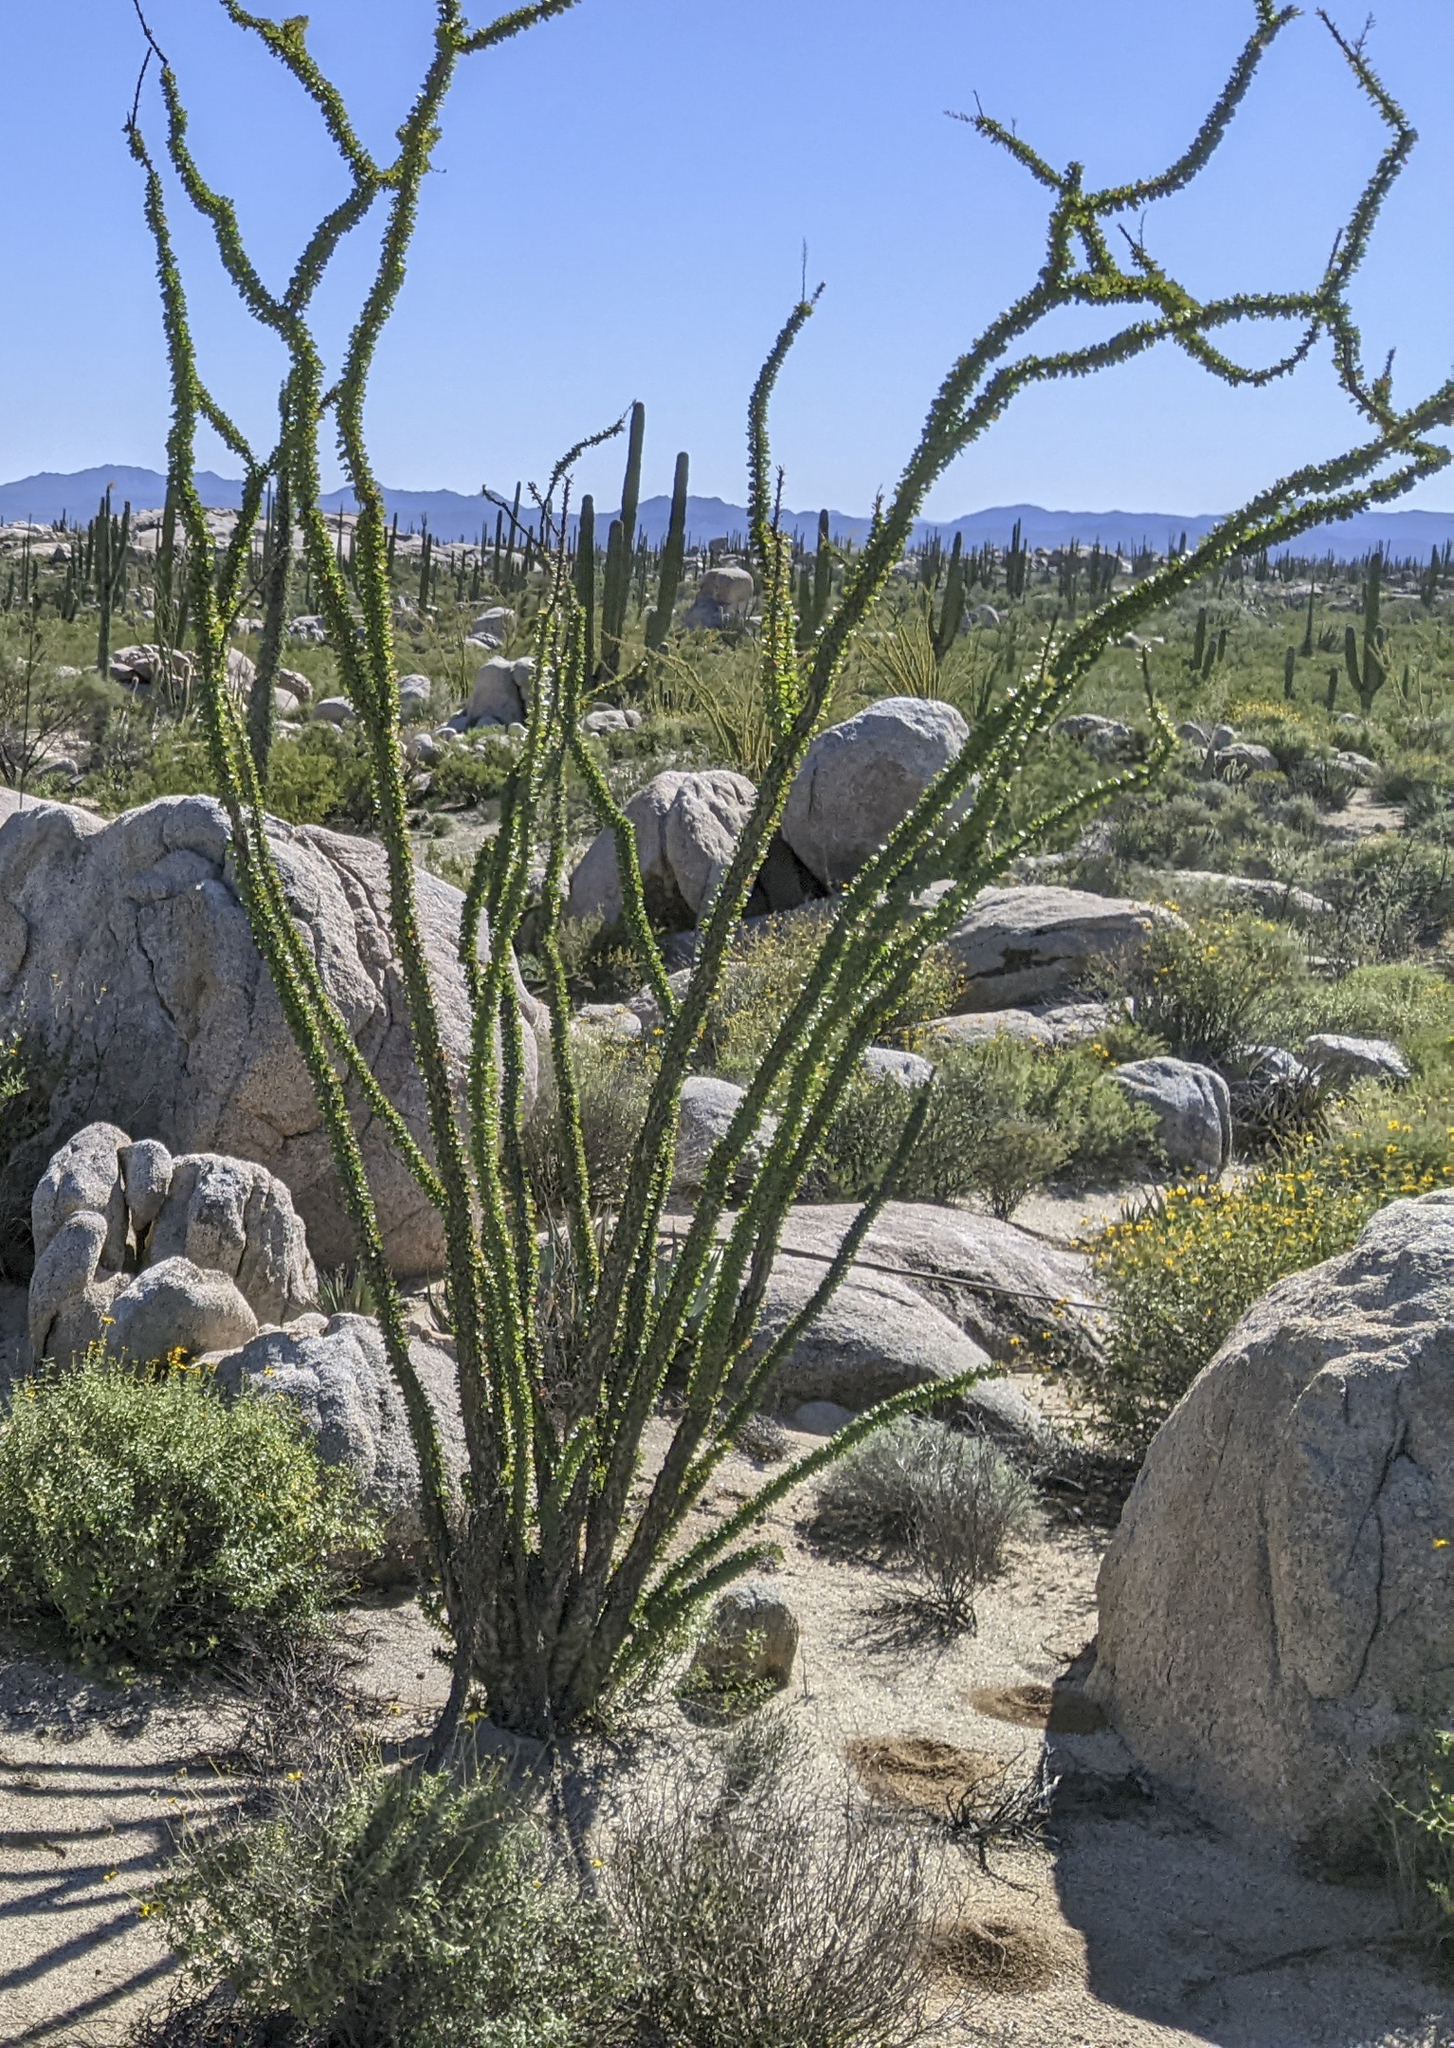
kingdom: Plantae
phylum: Tracheophyta
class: Magnoliopsida
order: Ericales
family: Fouquieriaceae
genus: Fouquieria
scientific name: Fouquieria splendens
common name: Vine-cactus
